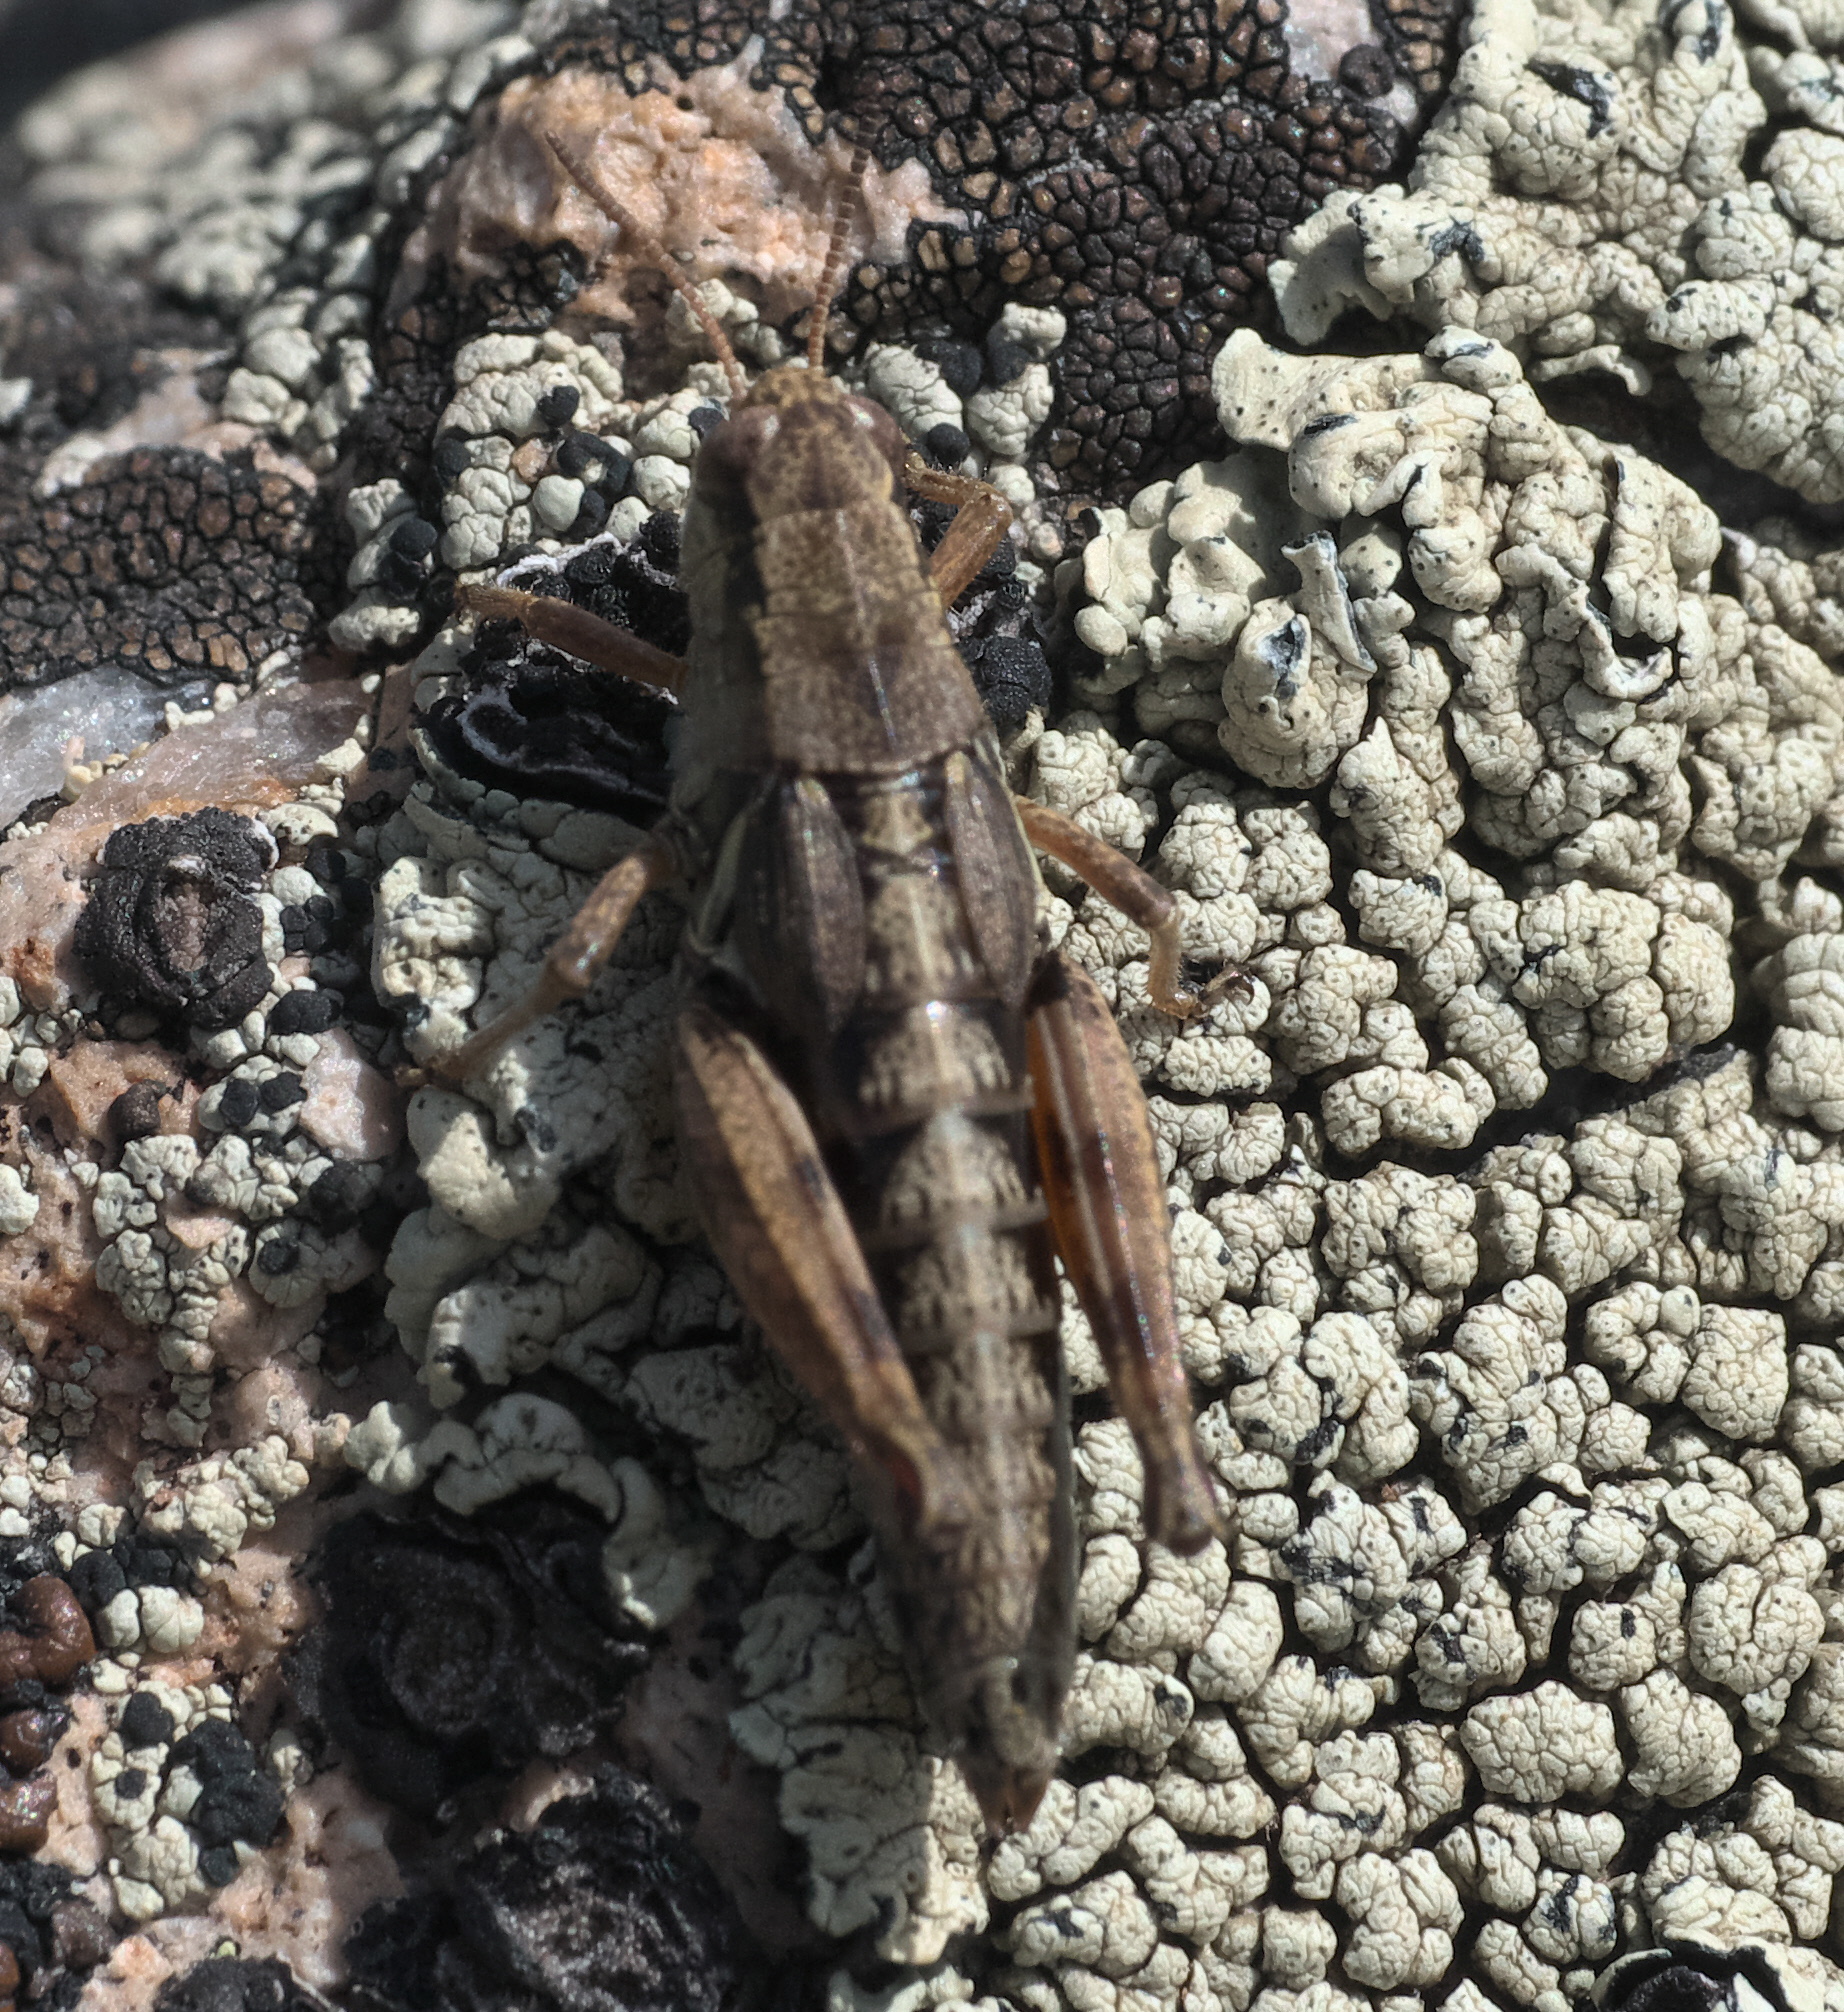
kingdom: Animalia
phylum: Arthropoda
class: Insecta
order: Orthoptera
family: Acrididae
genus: Melanoplus
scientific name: Melanoplus oregonensis
